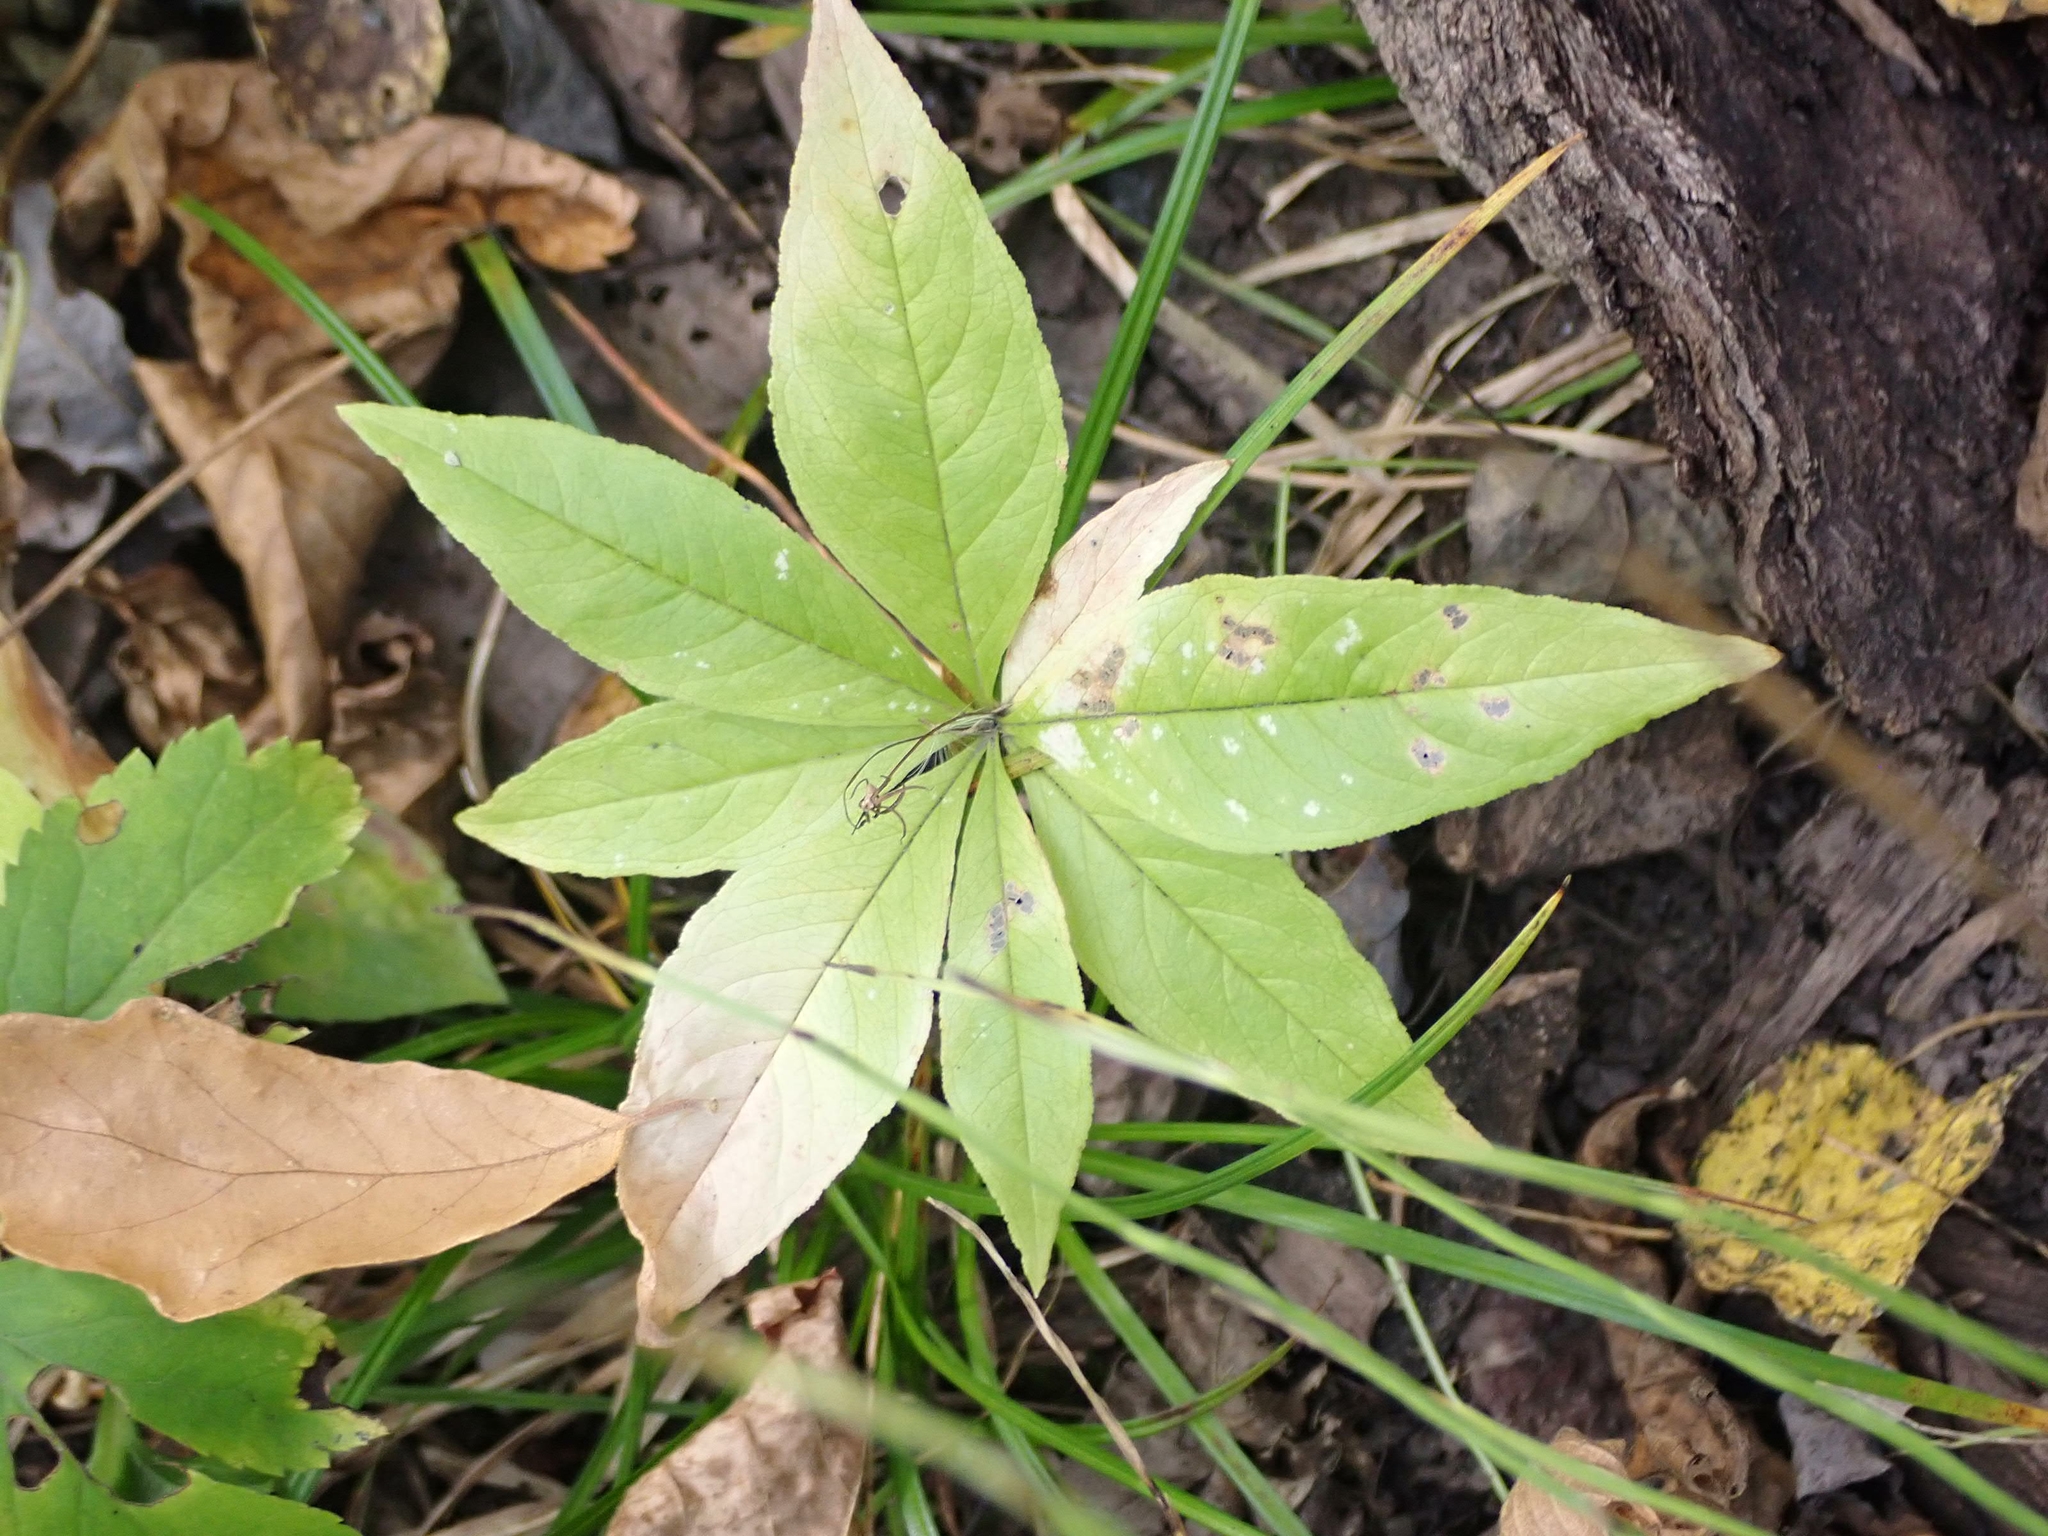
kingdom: Plantae
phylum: Tracheophyta
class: Magnoliopsida
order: Ericales
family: Primulaceae
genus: Lysimachia
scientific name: Lysimachia borealis
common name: American starflower
